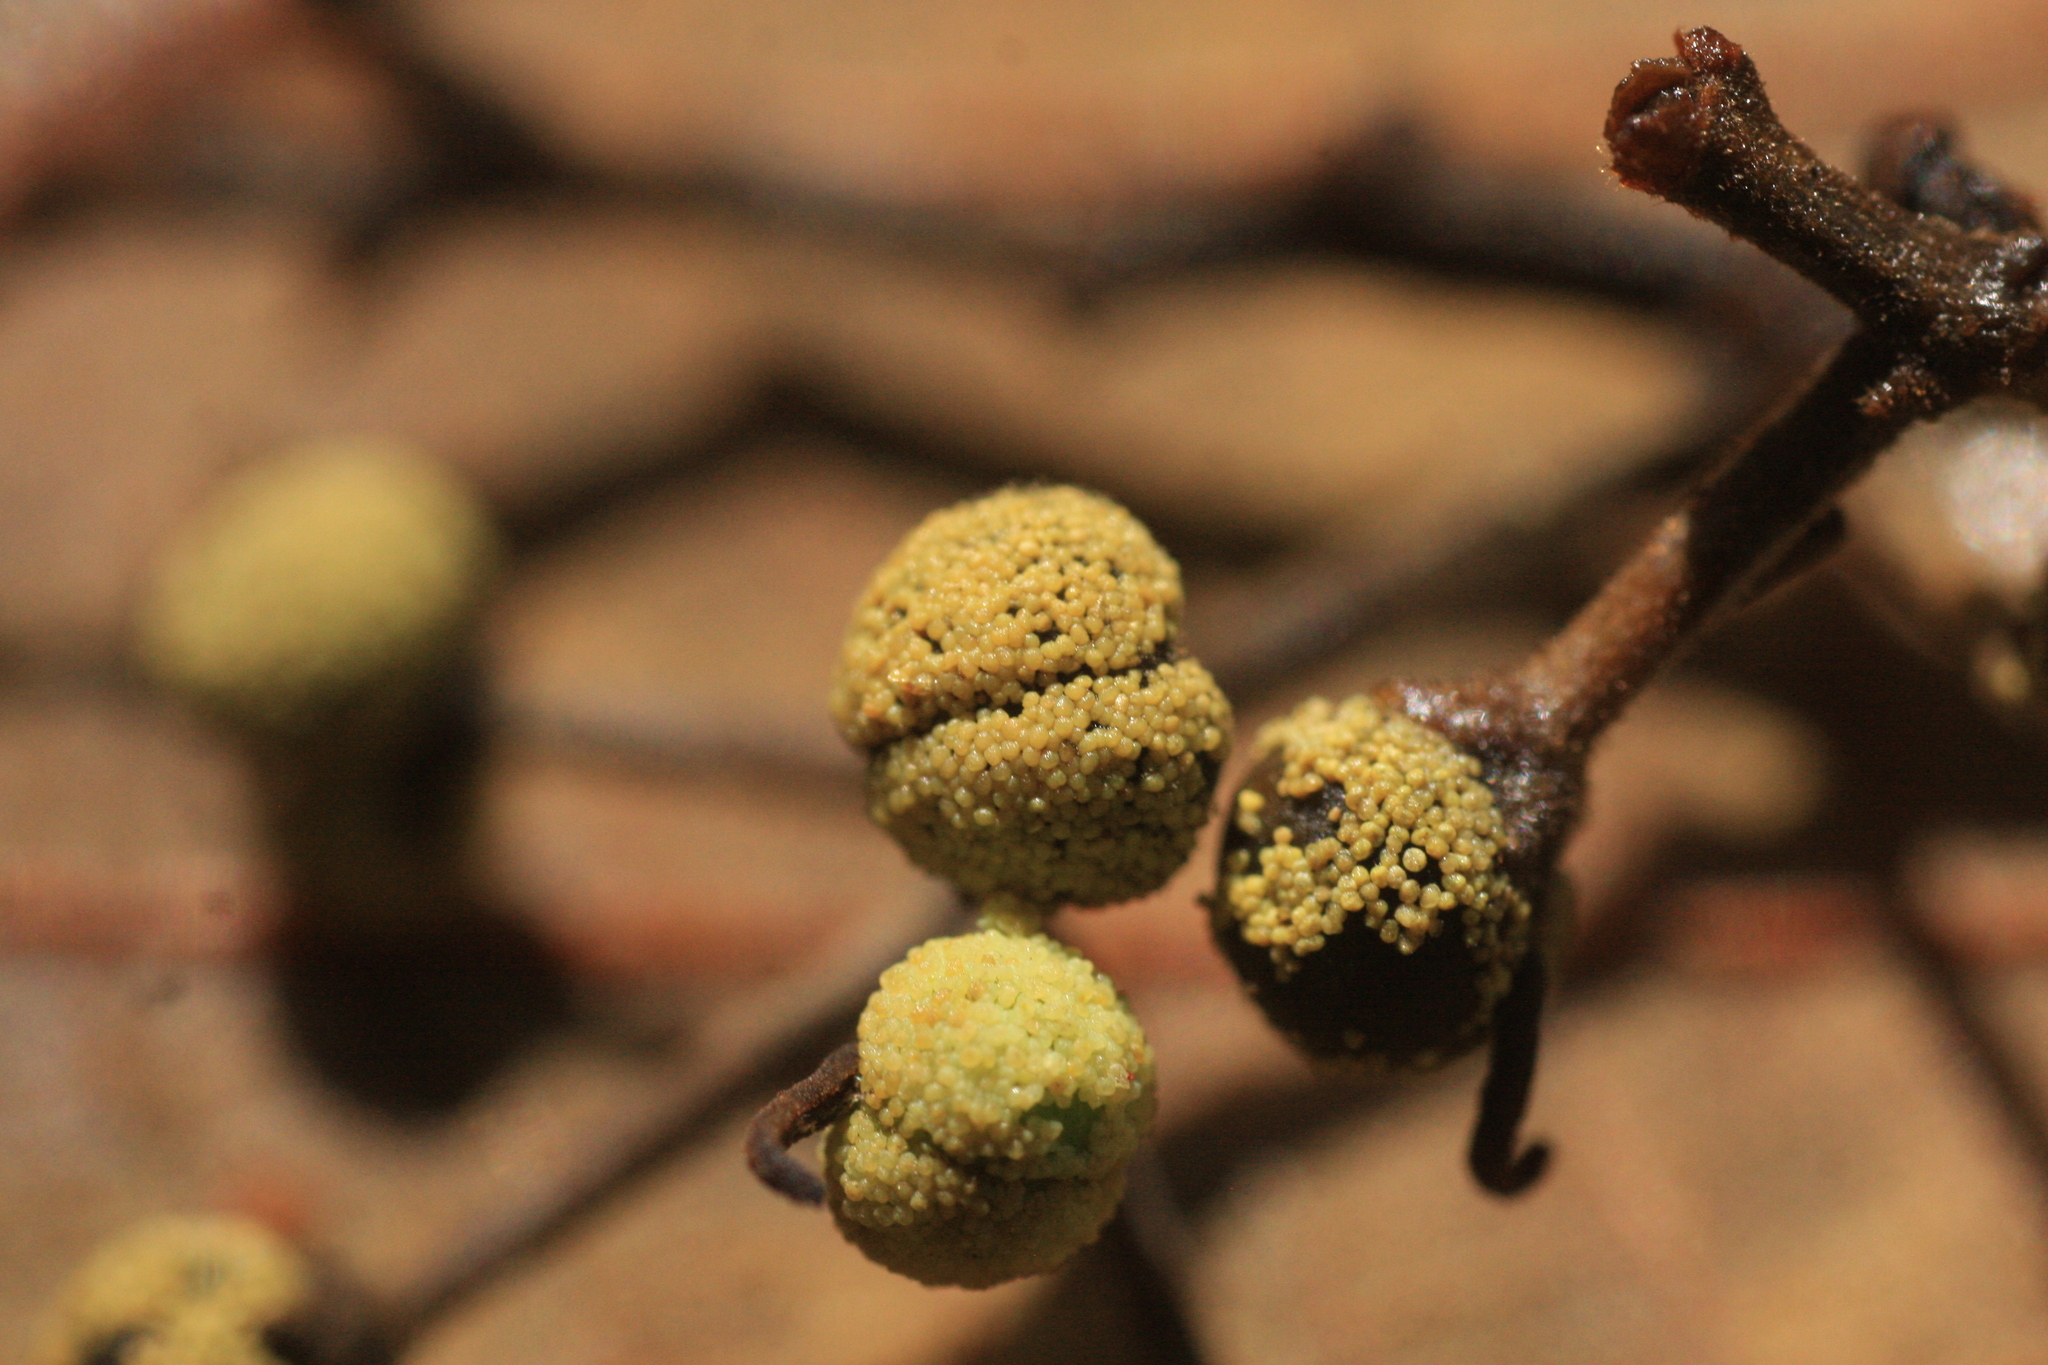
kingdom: Plantae
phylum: Tracheophyta
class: Magnoliopsida
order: Malpighiales
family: Euphorbiaceae
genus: Macaranga
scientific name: Macaranga indica
